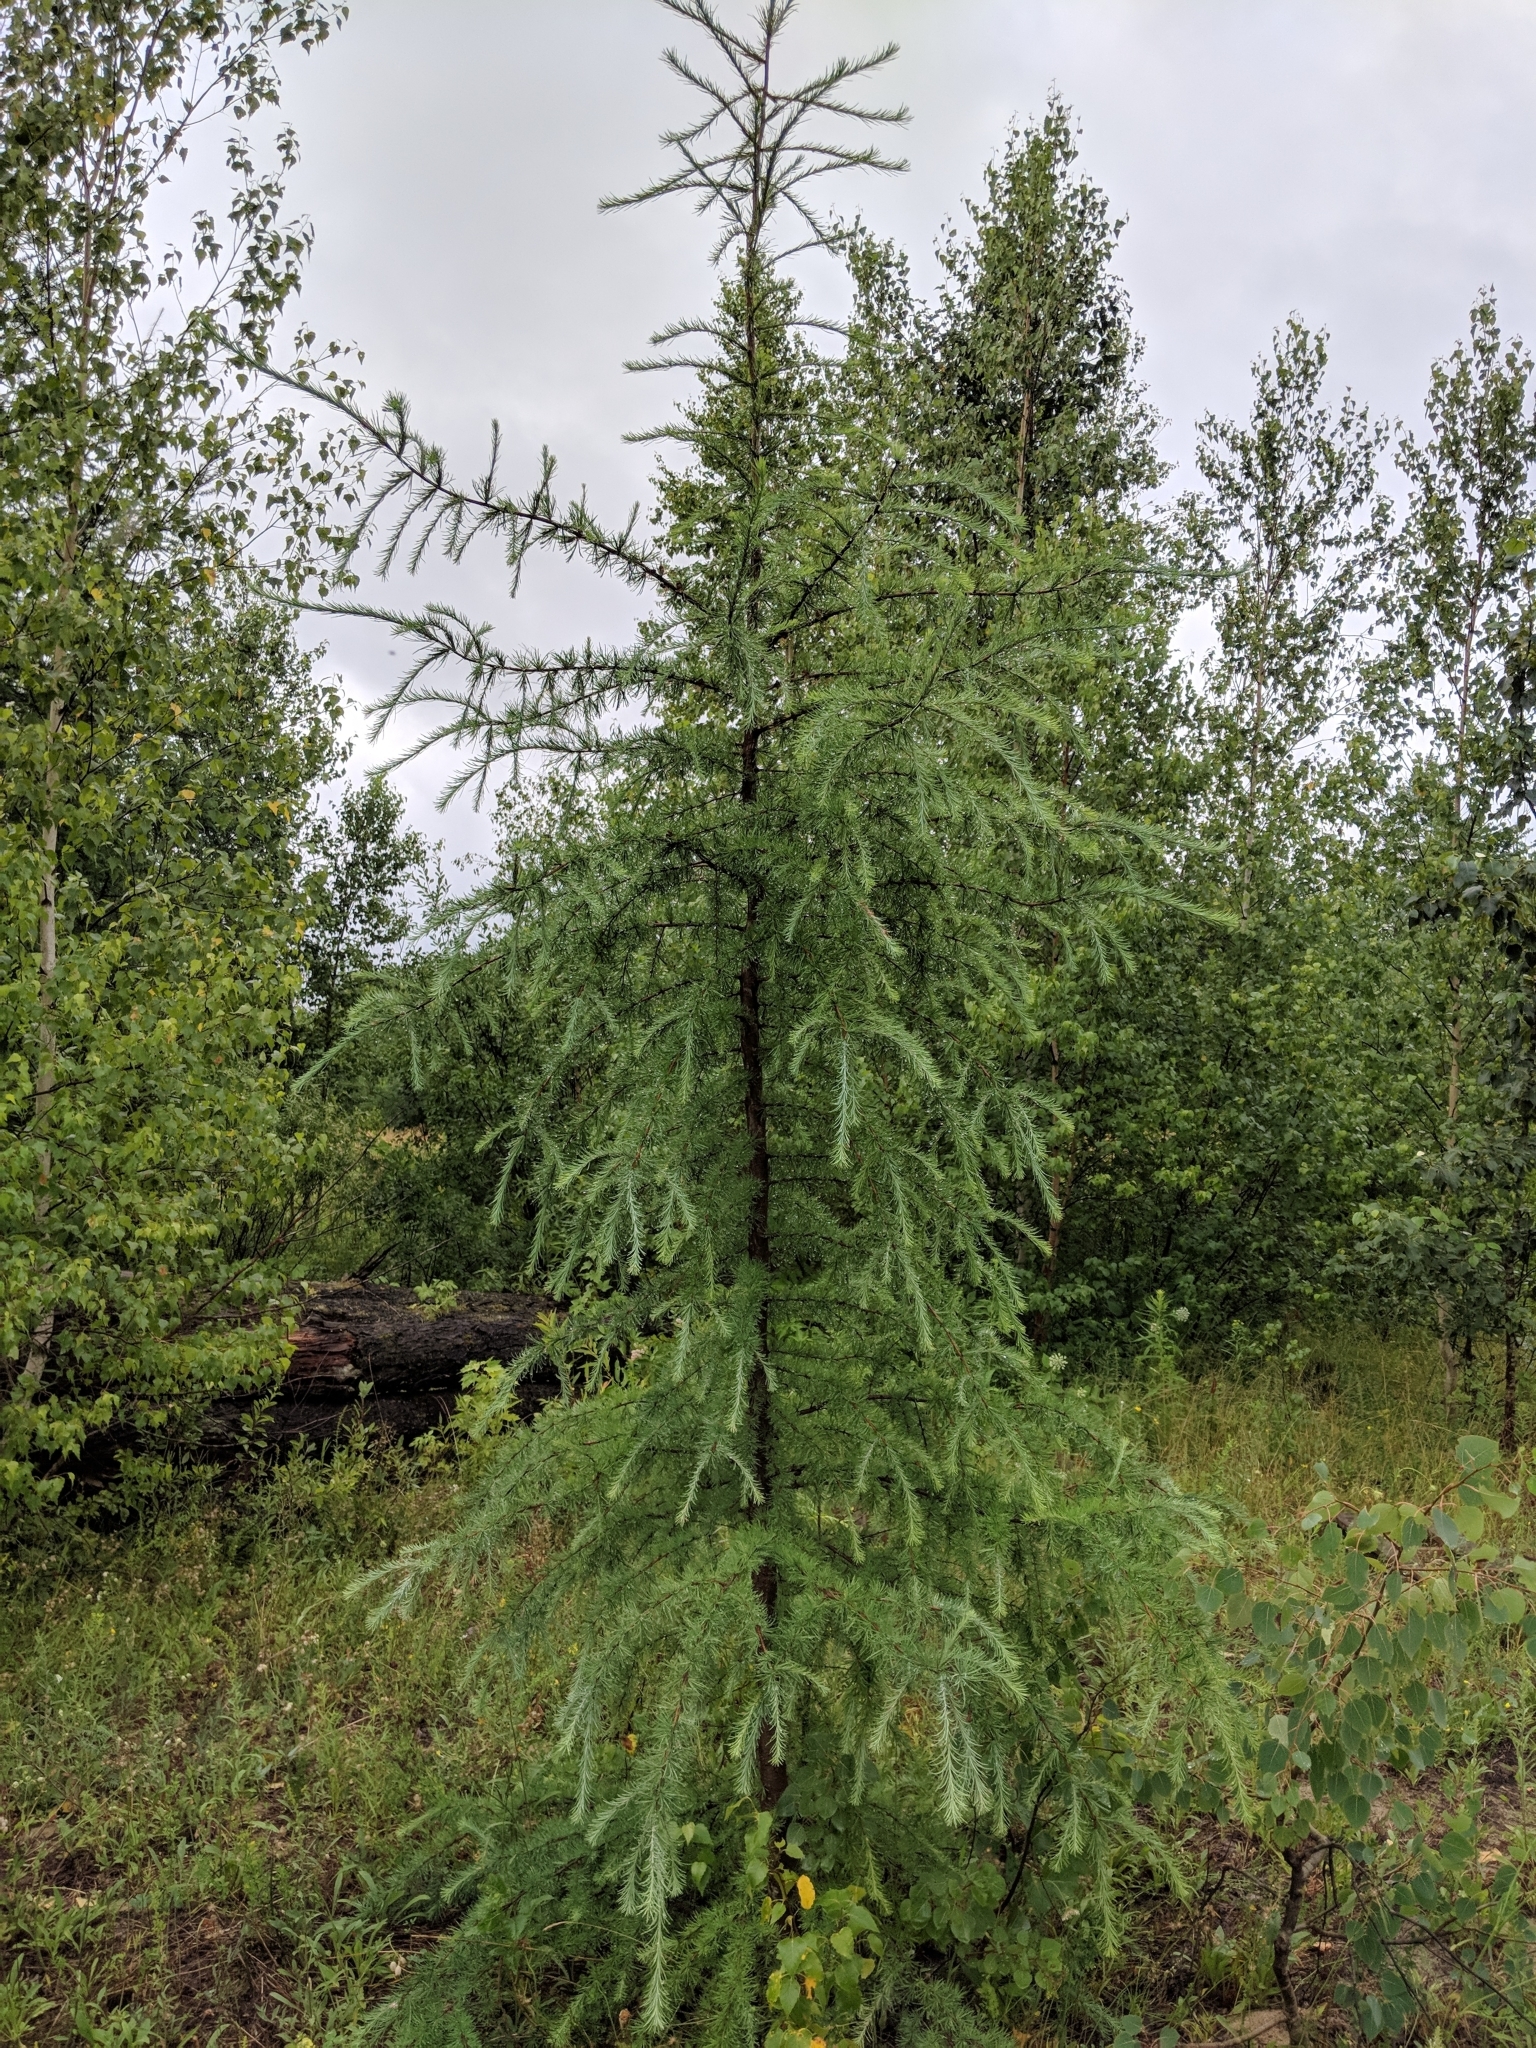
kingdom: Plantae
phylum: Tracheophyta
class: Pinopsida
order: Pinales
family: Pinaceae
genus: Larix
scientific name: Larix laricina
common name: American larch
